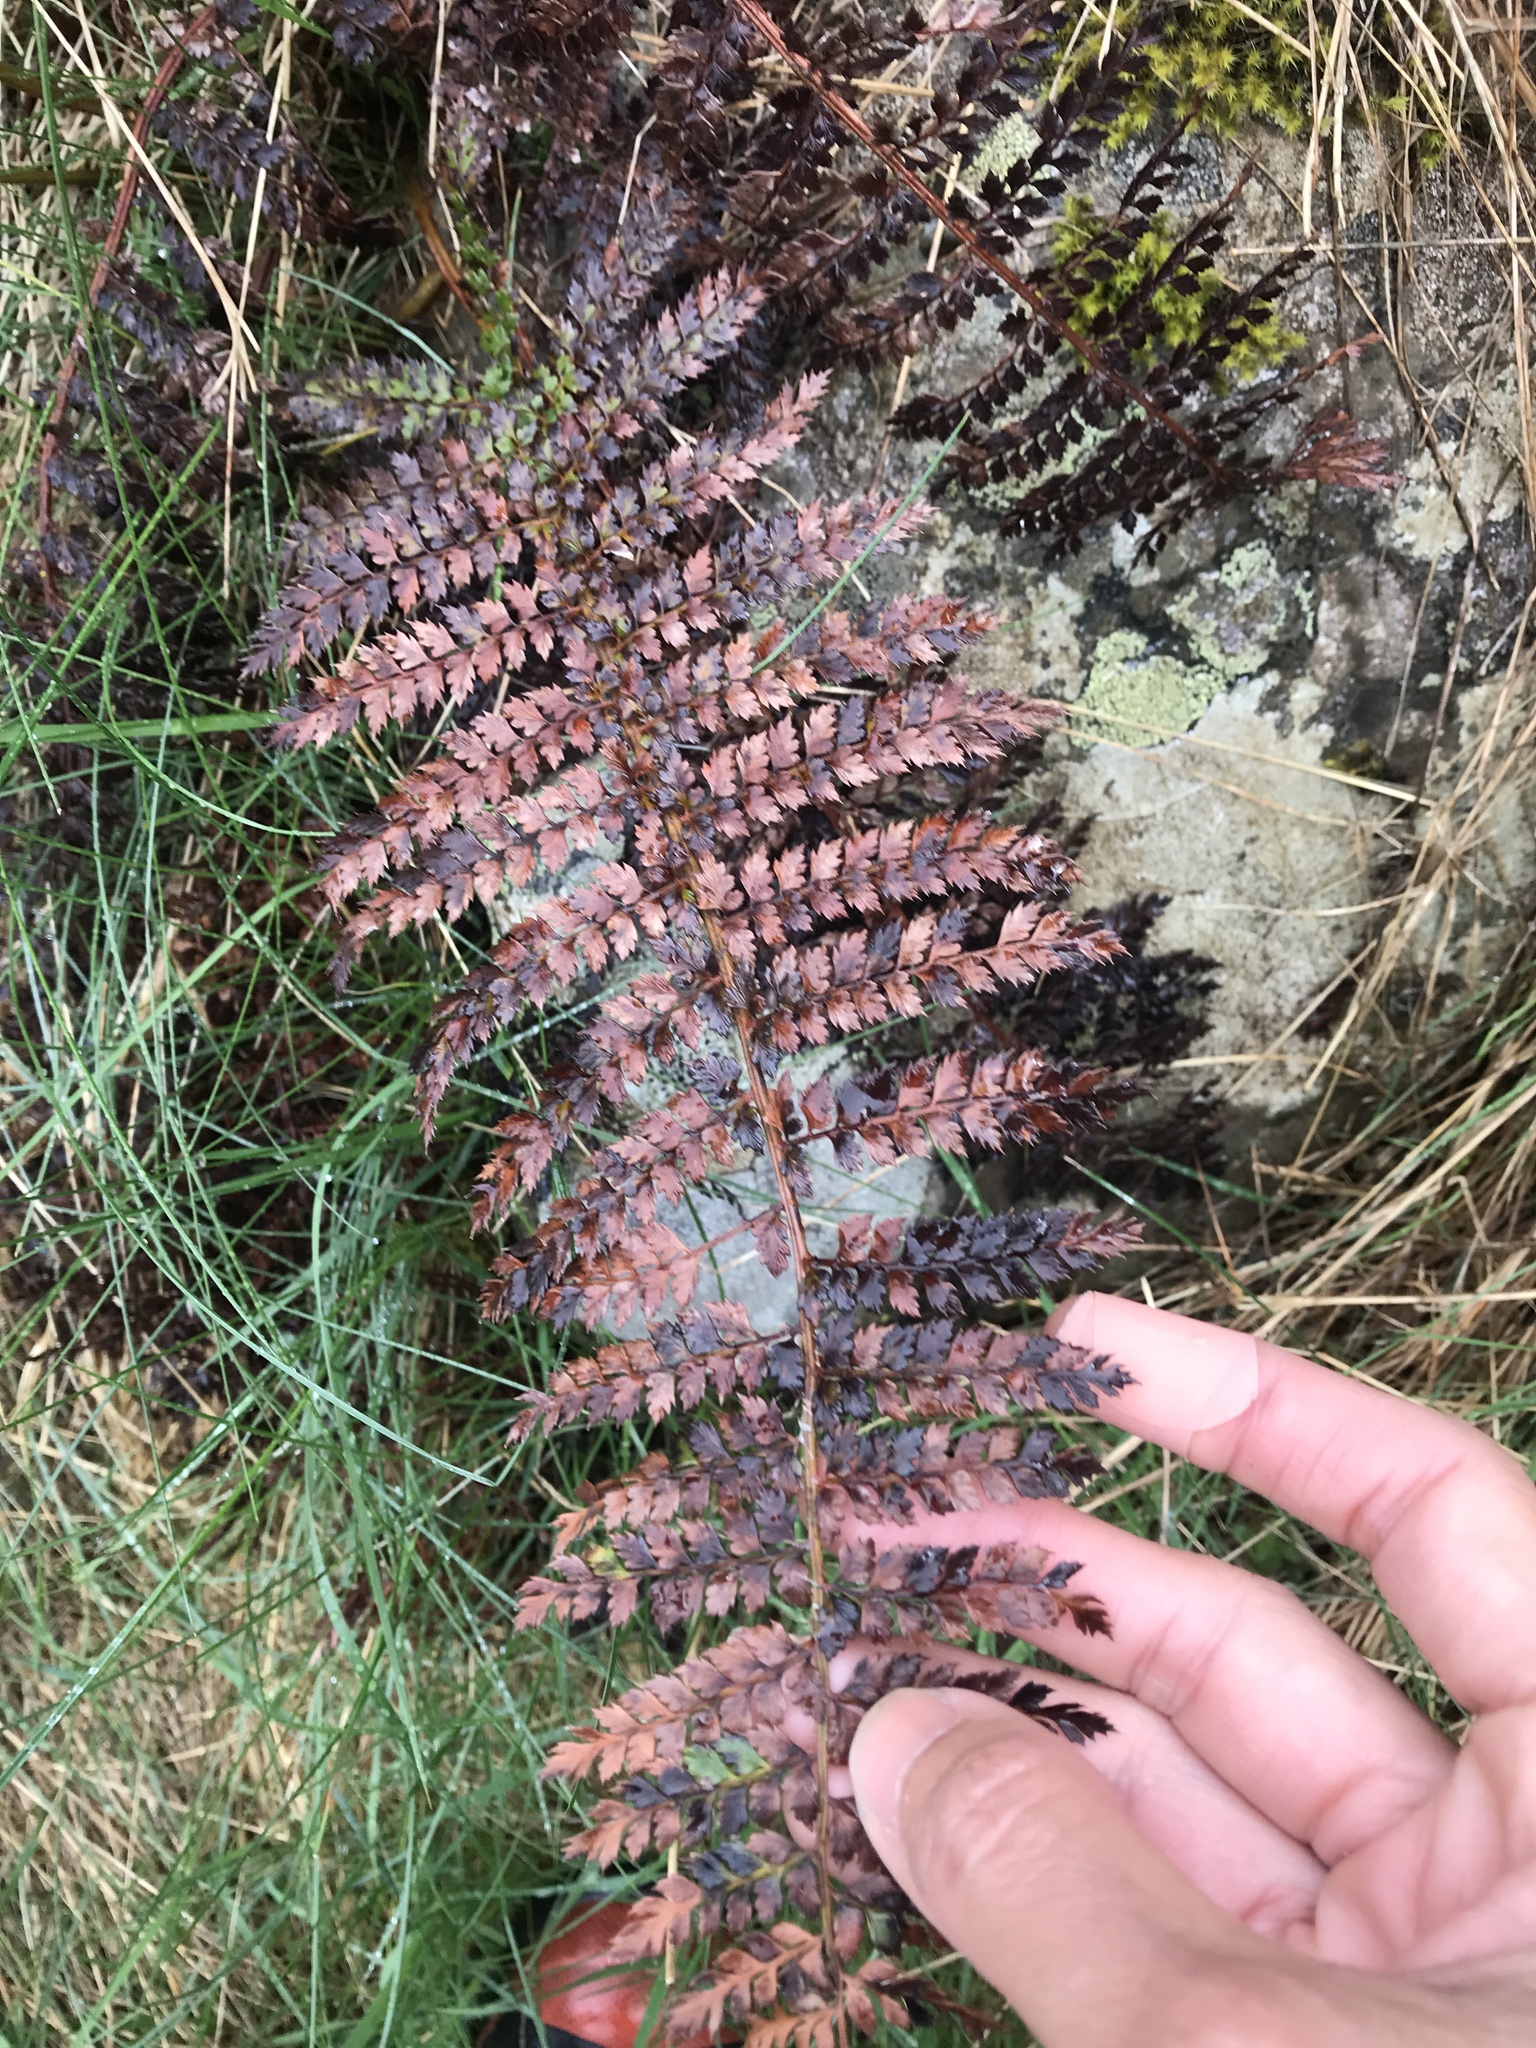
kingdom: Plantae
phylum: Tracheophyta
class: Polypodiopsida
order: Polypodiales
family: Dryopteridaceae
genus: Polystichum
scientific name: Polystichum vestitum
